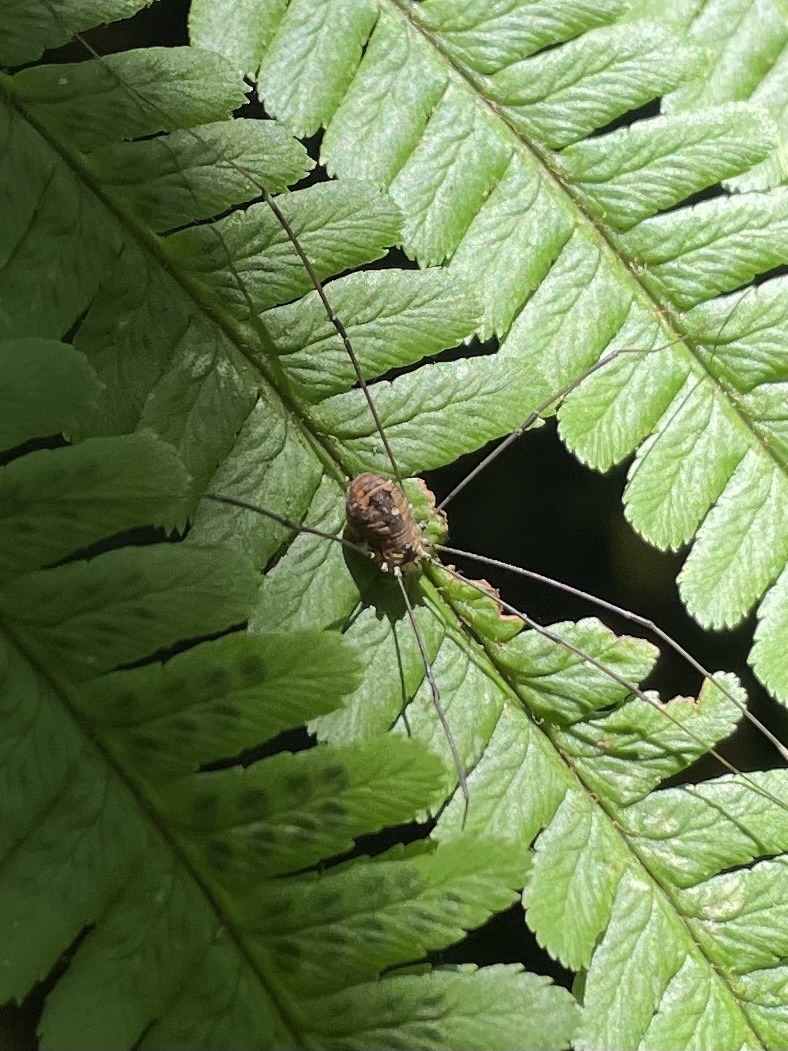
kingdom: Animalia
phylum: Arthropoda
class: Arachnida
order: Opiliones
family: Sclerosomatidae
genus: Leiobunum
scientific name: Leiobunum rotundum
